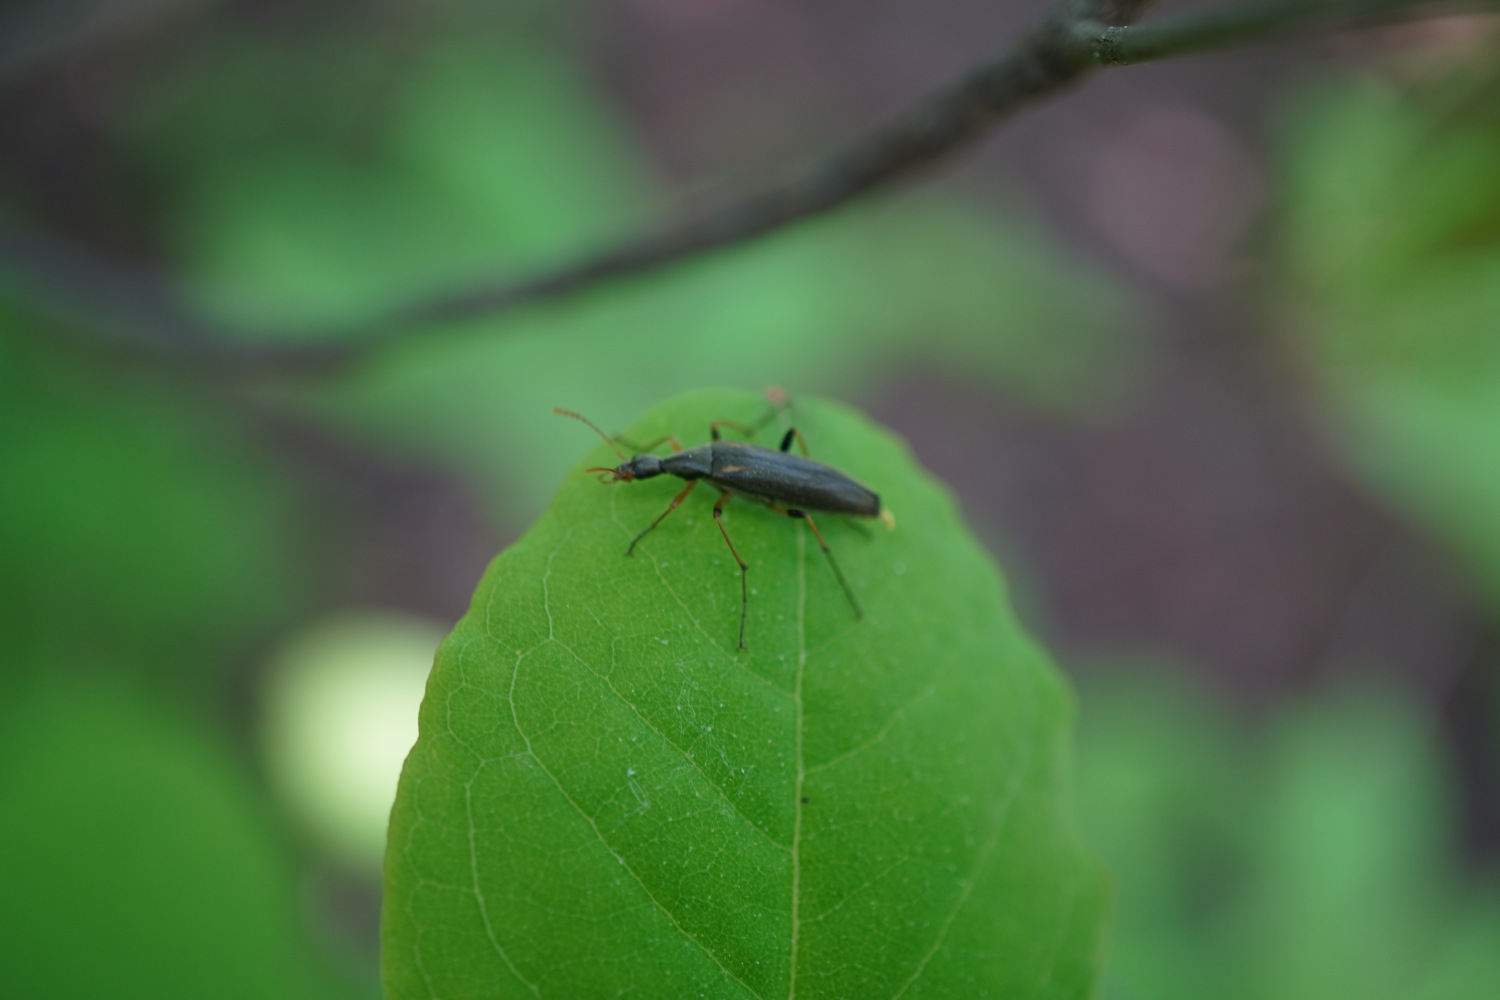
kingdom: Animalia
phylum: Arthropoda
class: Insecta
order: Coleoptera
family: Stenotrachelidae
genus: Cephaloon
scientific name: Cephaloon pallens
